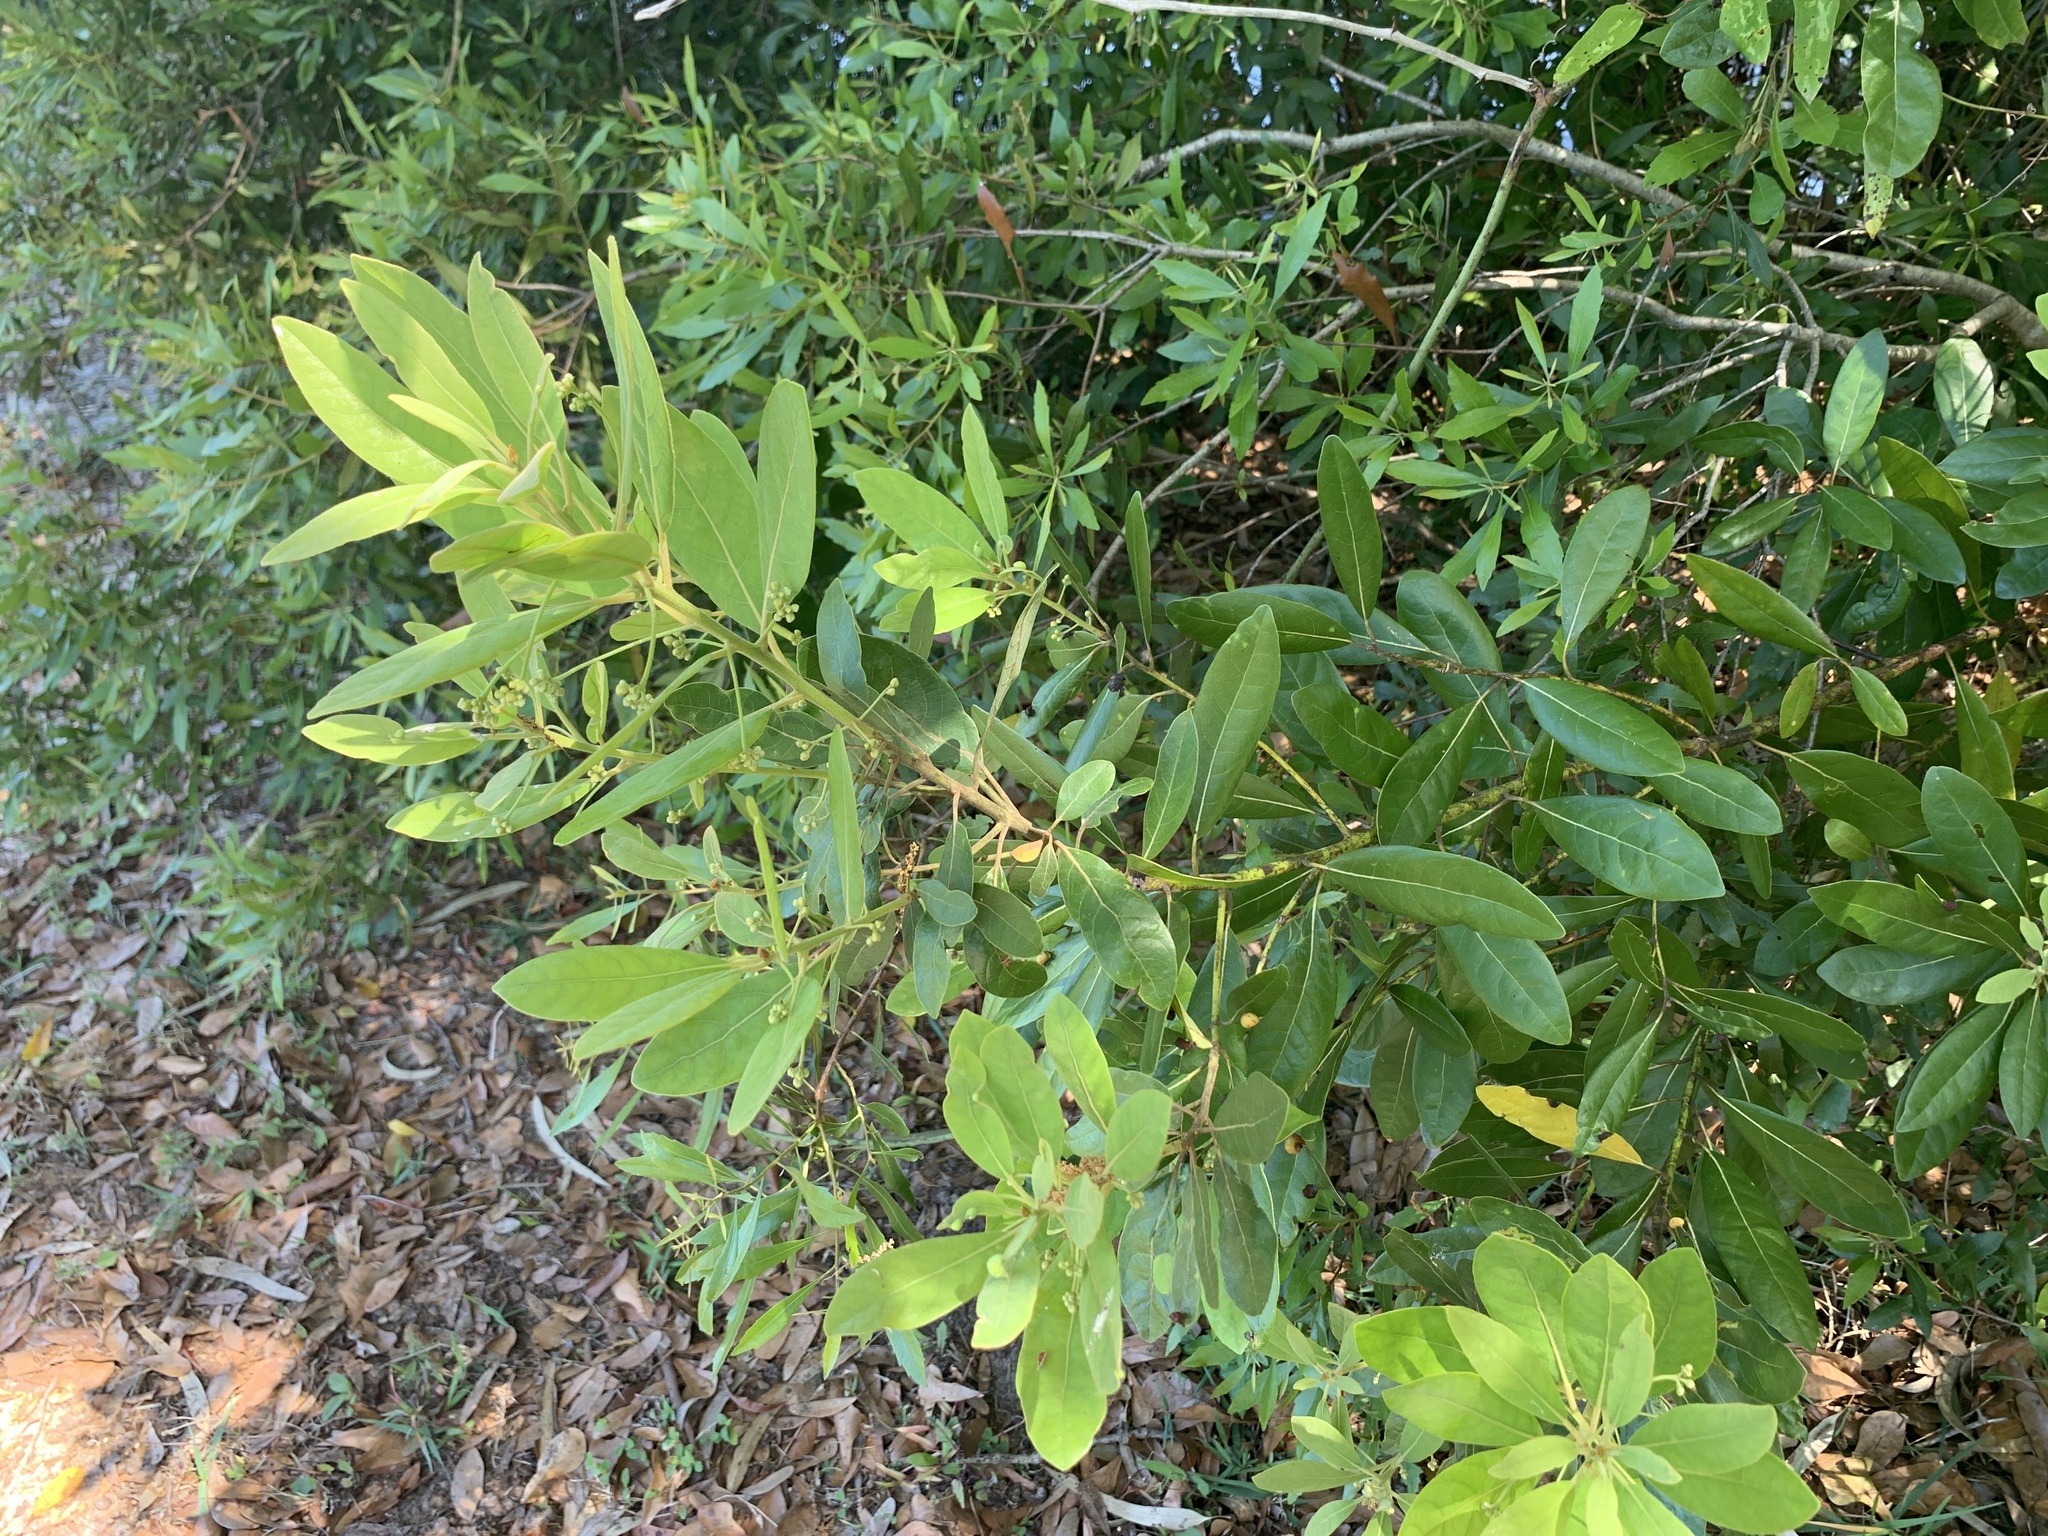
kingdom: Plantae
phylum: Tracheophyta
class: Magnoliopsida
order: Laurales
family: Lauraceae
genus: Persea
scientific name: Persea palustris
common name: Swampbay
